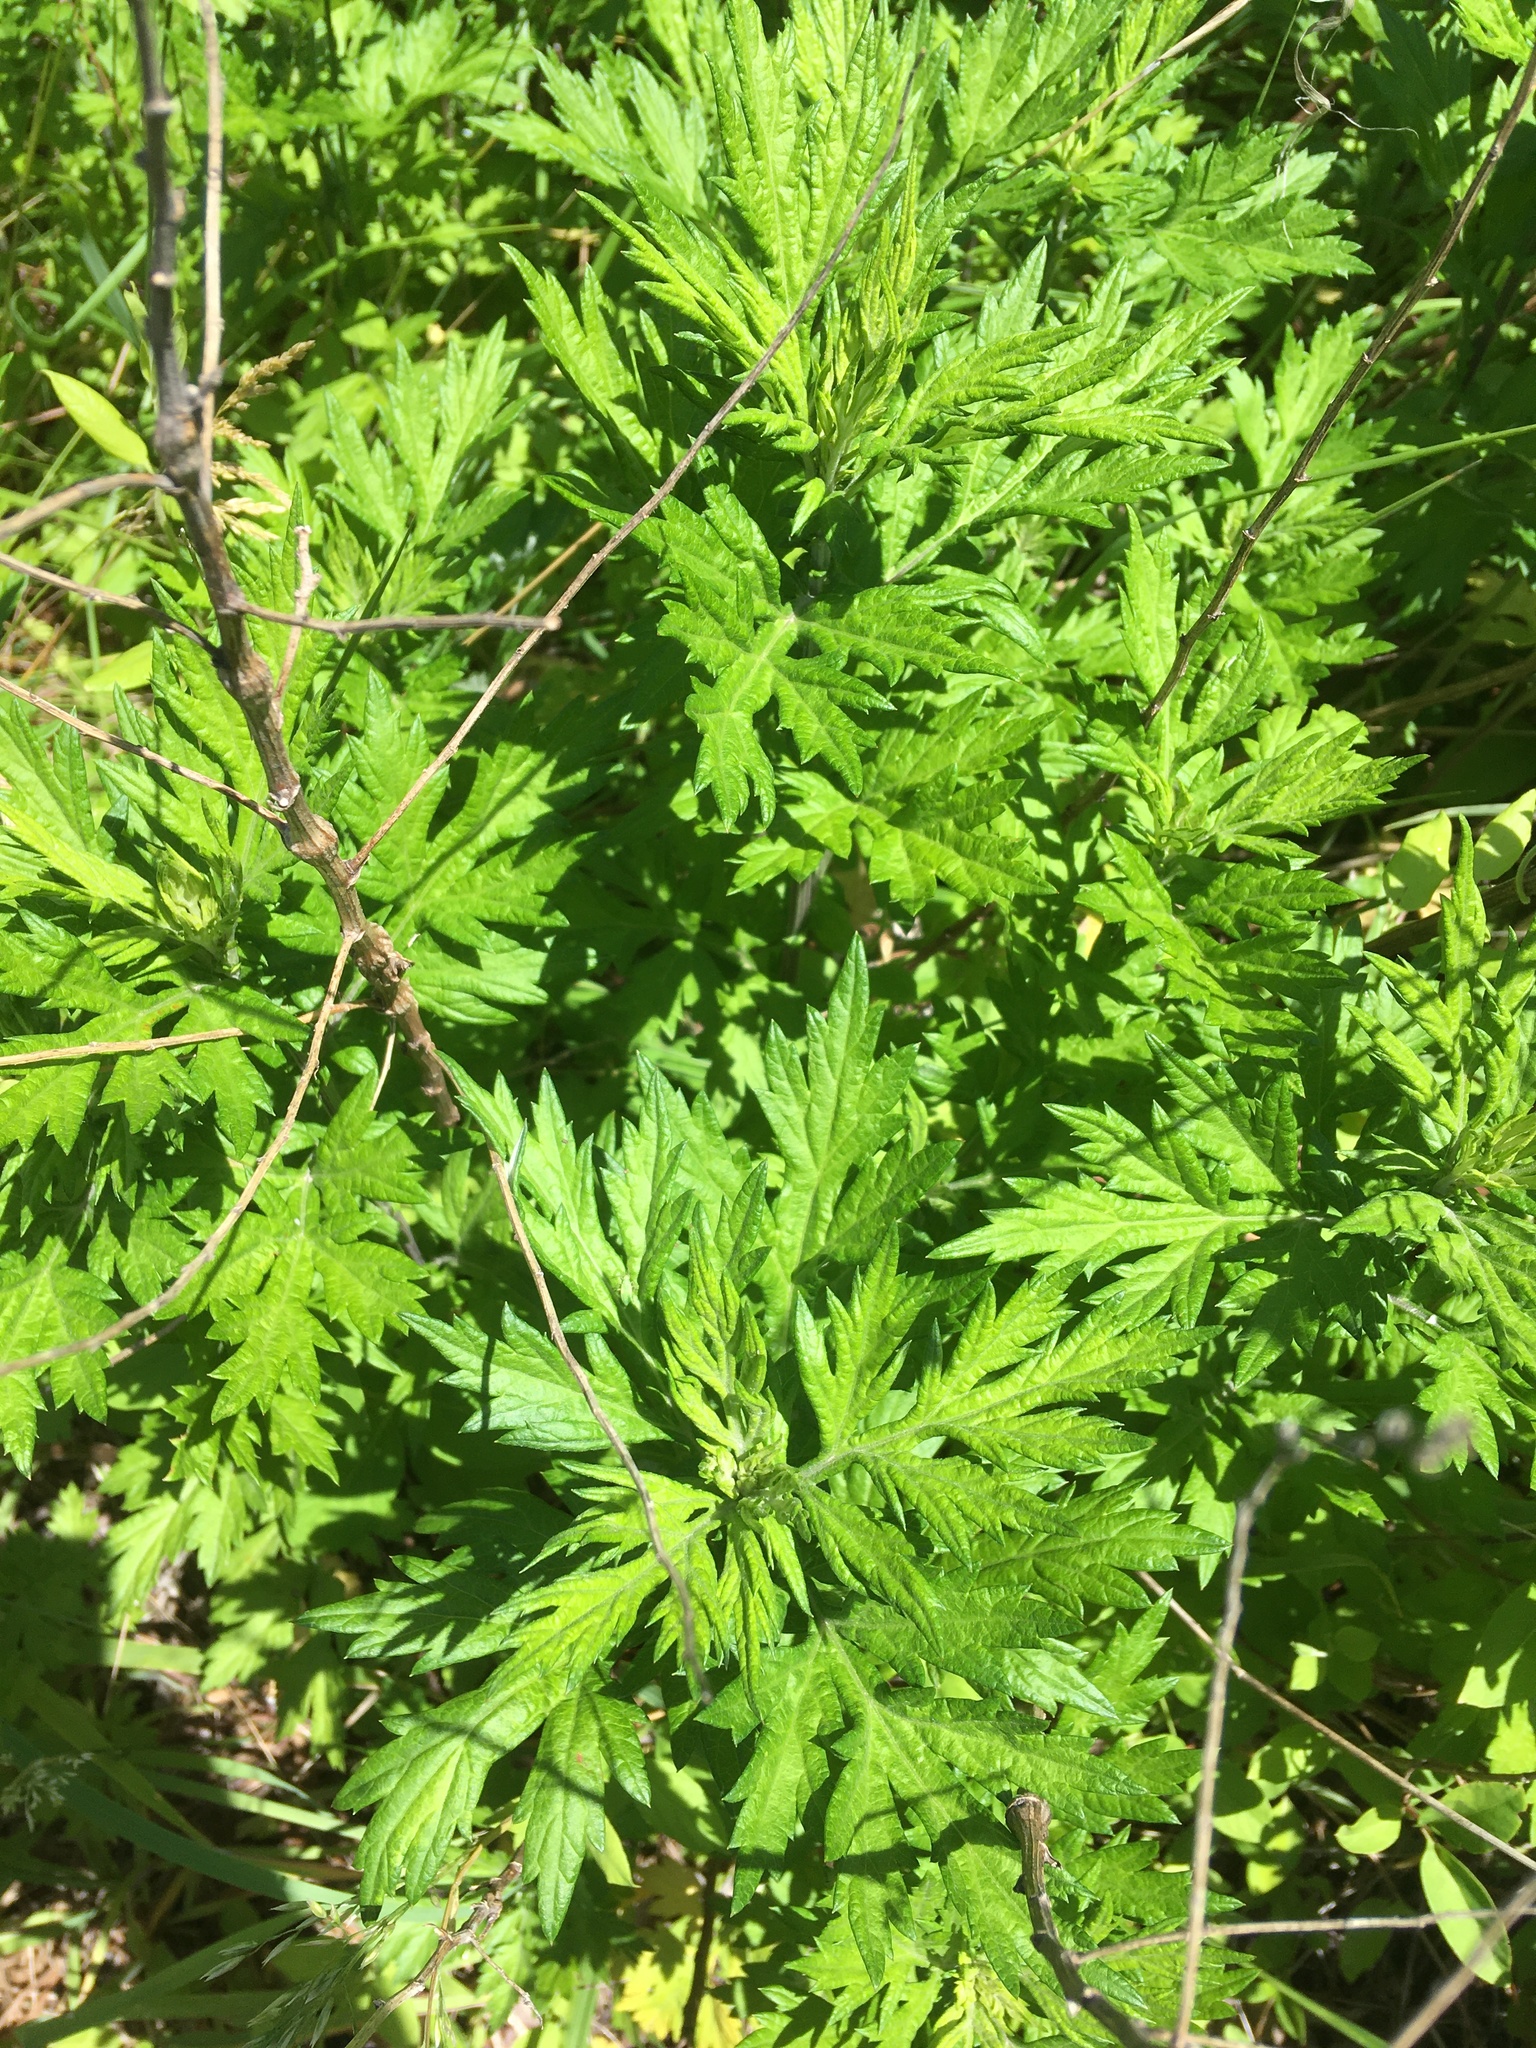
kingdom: Plantae
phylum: Tracheophyta
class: Magnoliopsida
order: Asterales
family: Asteraceae
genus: Artemisia
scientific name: Artemisia vulgaris
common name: Mugwort
